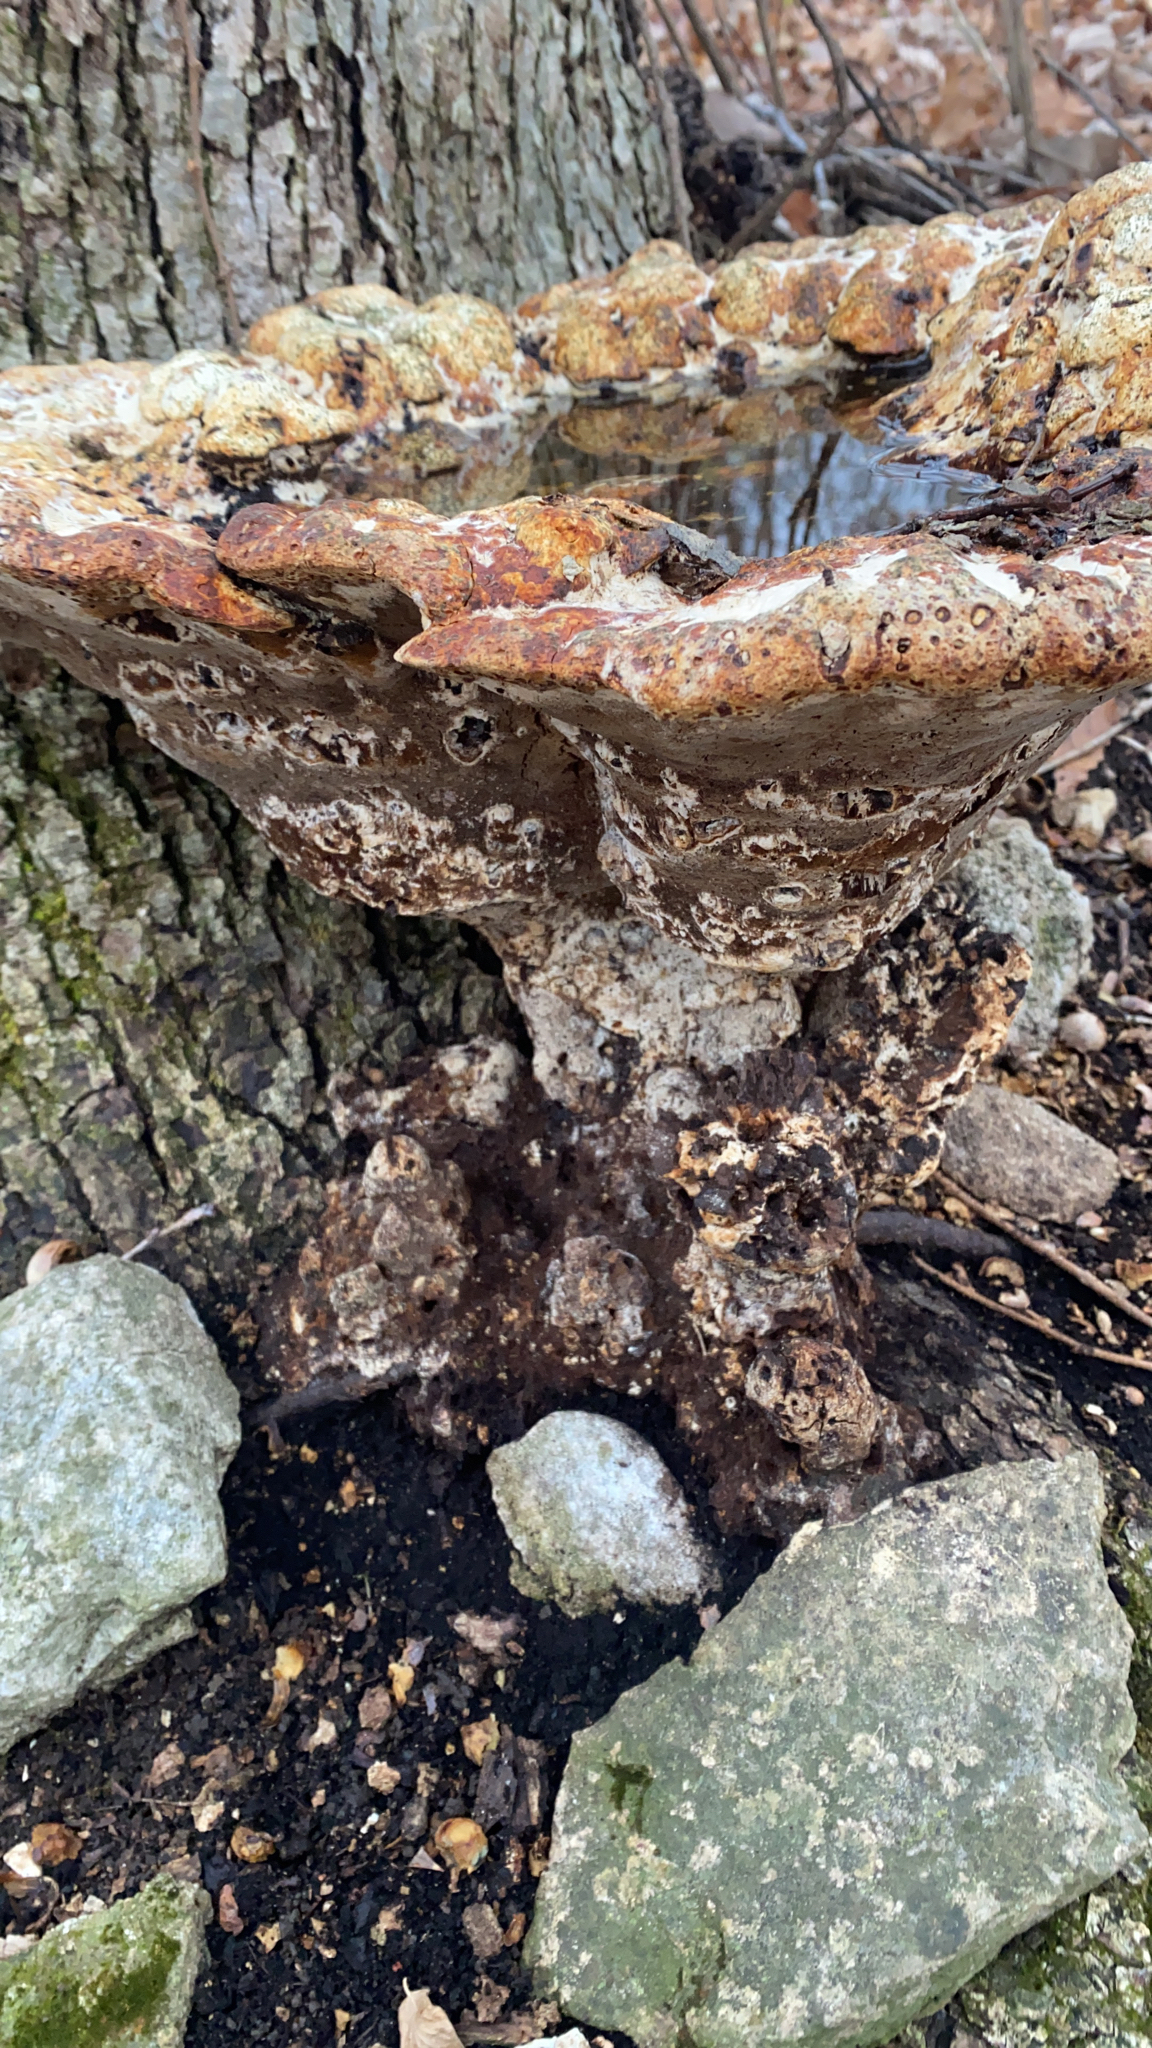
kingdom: Fungi
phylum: Basidiomycota
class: Agaricomycetes
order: Hymenochaetales
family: Hymenochaetaceae
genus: Pseudoinonotus
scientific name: Pseudoinonotus dryadeus
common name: Oak bracket
